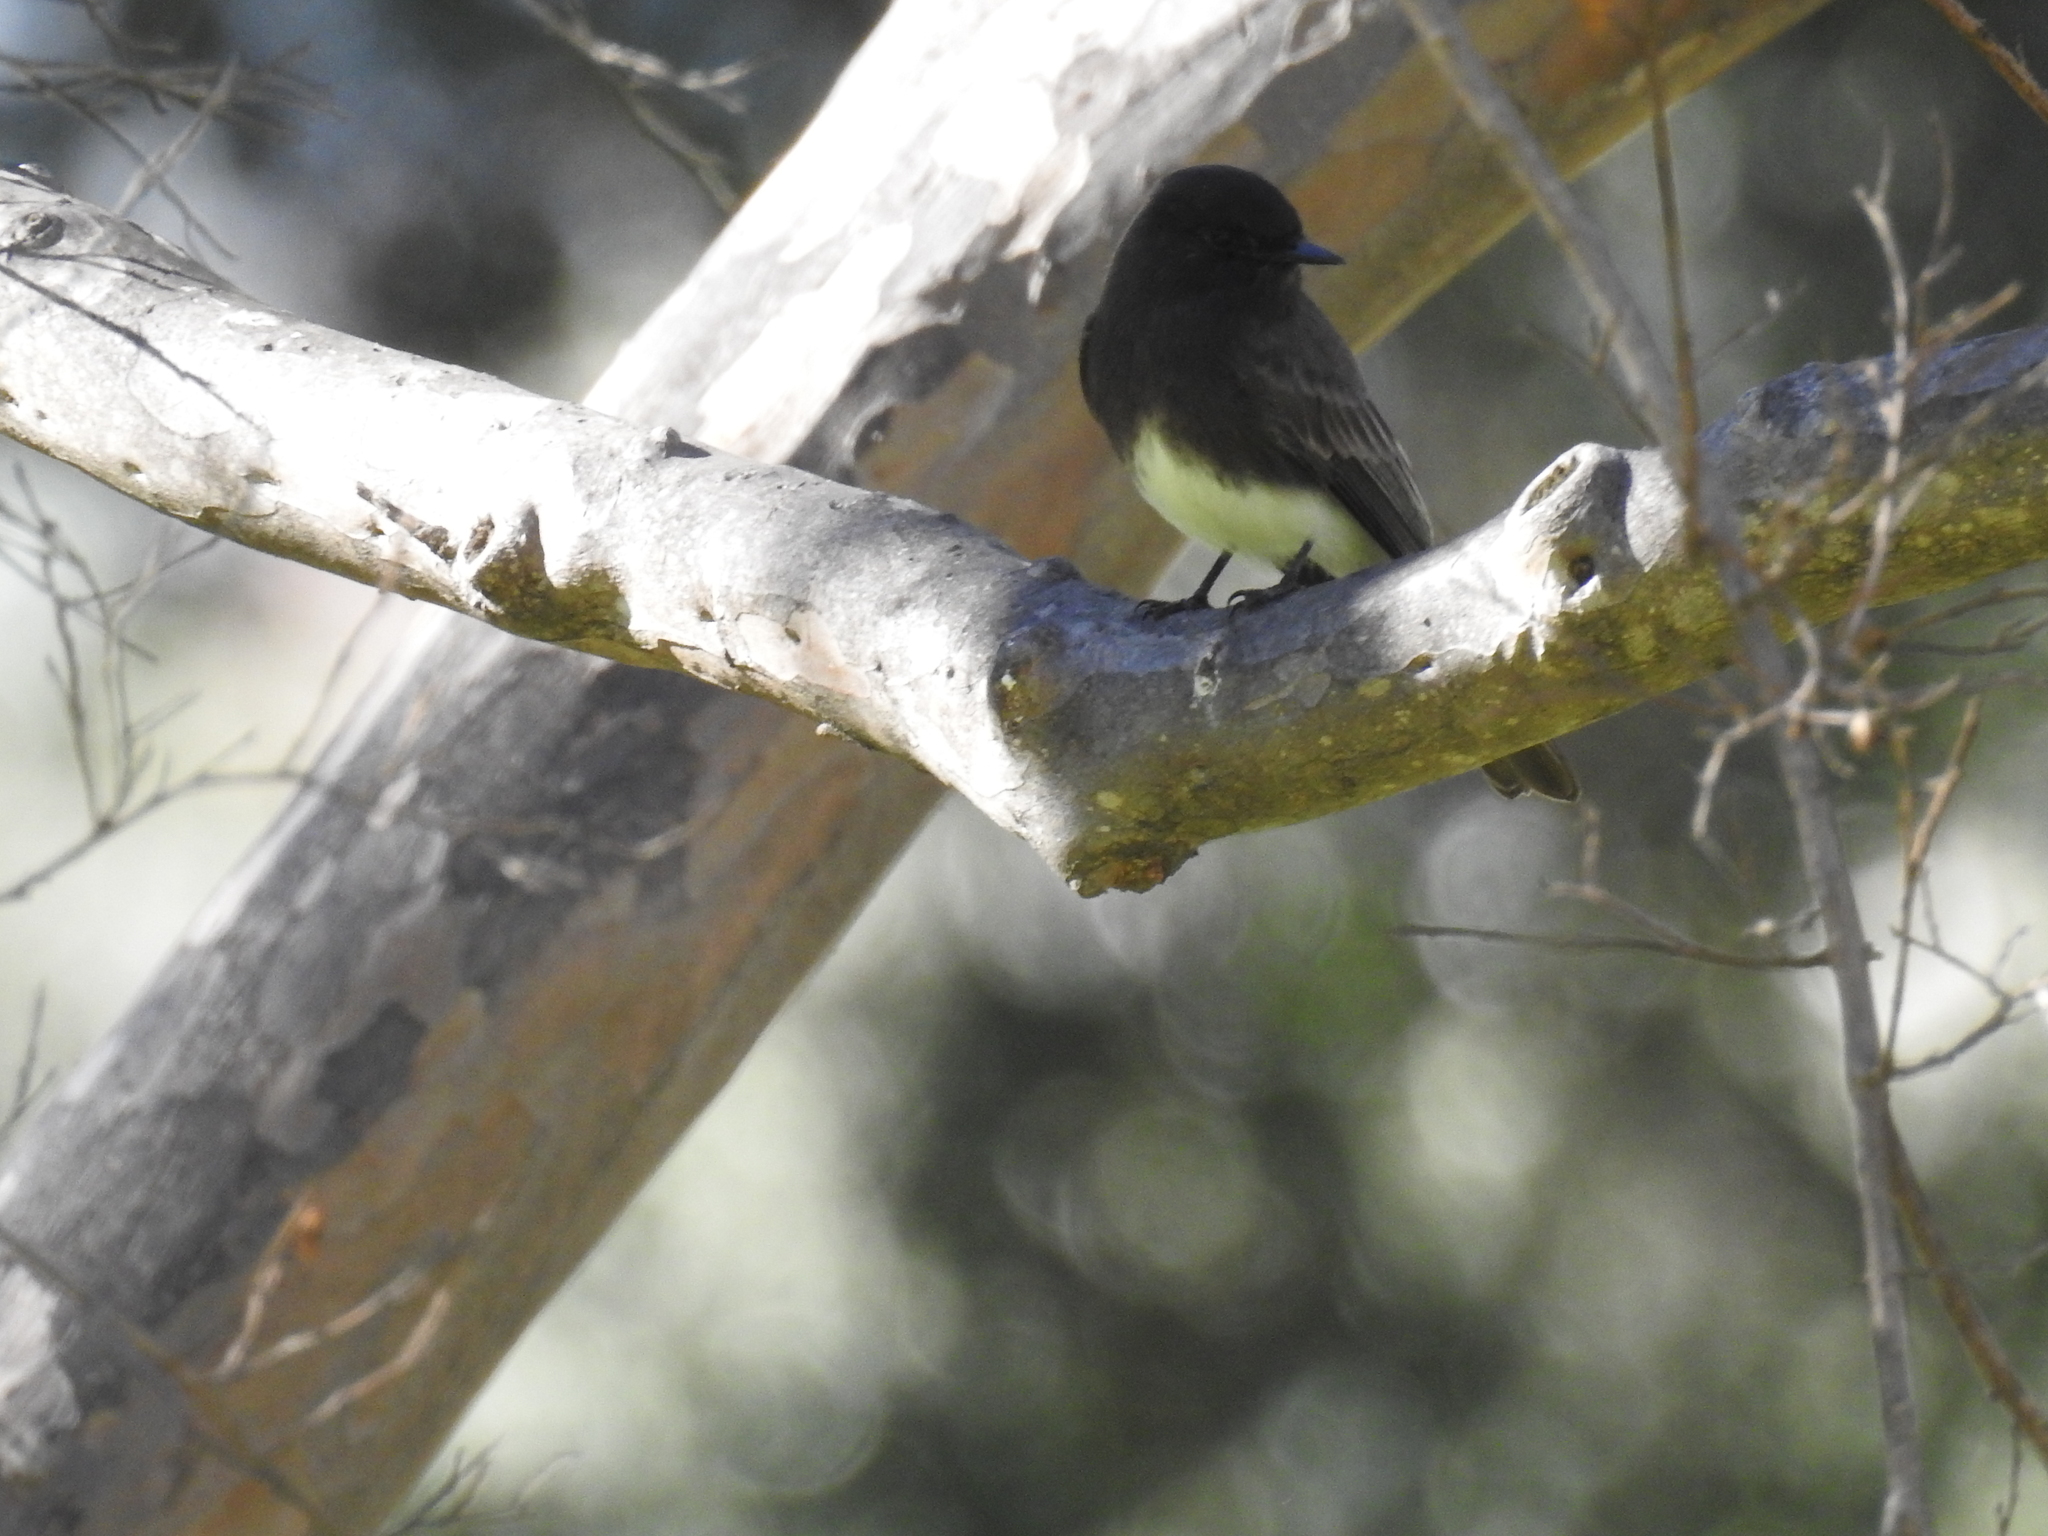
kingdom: Animalia
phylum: Chordata
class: Aves
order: Passeriformes
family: Tyrannidae
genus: Sayornis
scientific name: Sayornis nigricans
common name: Black phoebe
